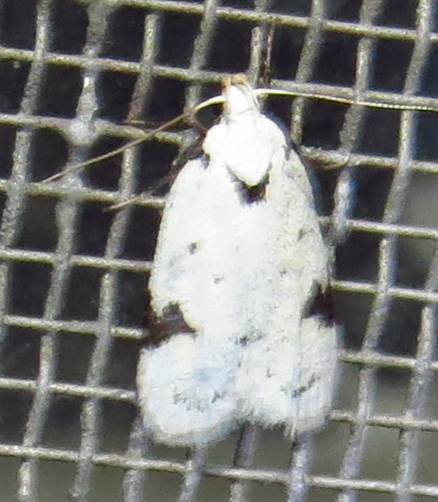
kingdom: Animalia
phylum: Arthropoda
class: Insecta
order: Lepidoptera
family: Oecophoridae
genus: Inga
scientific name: Inga sparsiciliella
